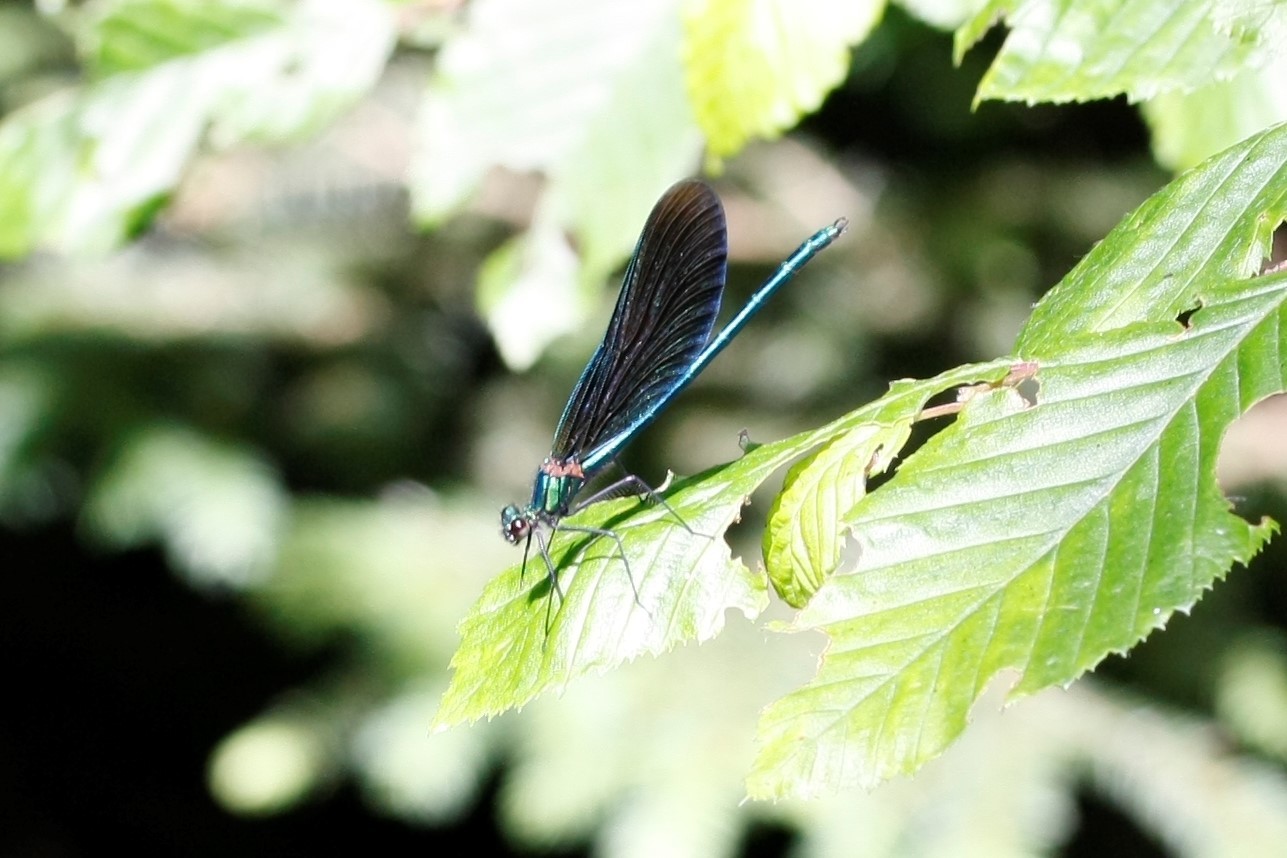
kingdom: Animalia
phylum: Arthropoda
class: Insecta
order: Odonata
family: Calopterygidae
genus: Calopteryx
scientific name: Calopteryx virgo
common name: Beautiful demoiselle
